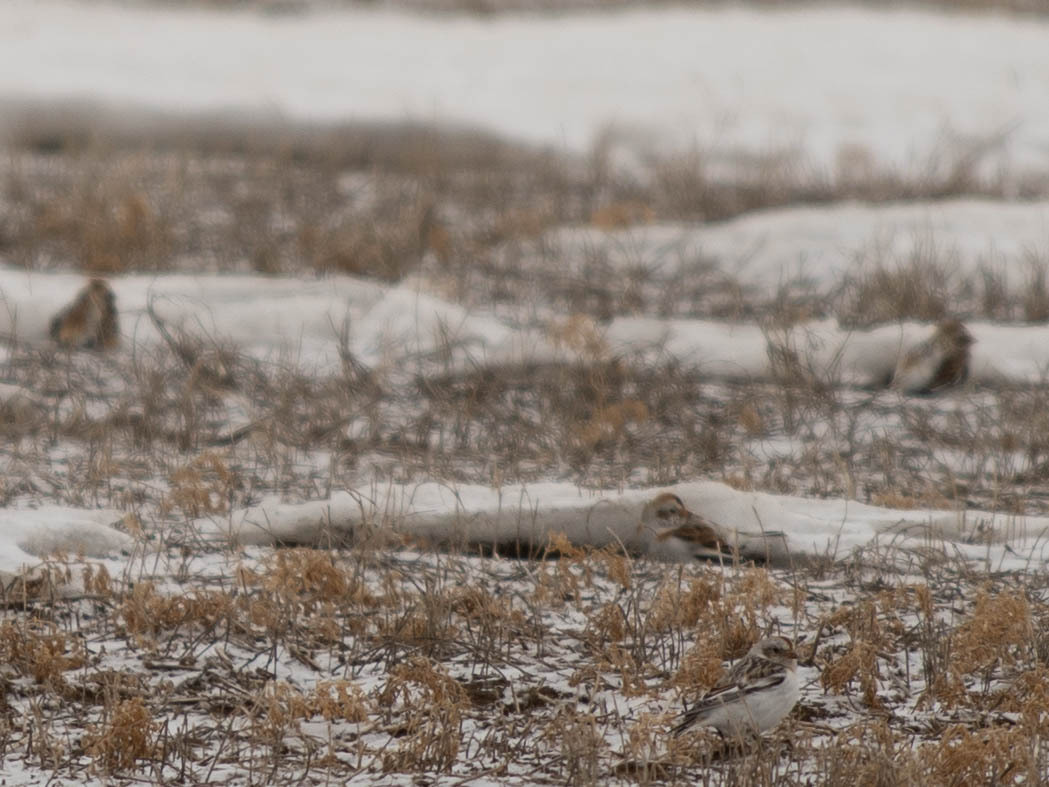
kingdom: Animalia
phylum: Chordata
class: Aves
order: Passeriformes
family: Calcariidae
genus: Plectrophenax
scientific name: Plectrophenax nivalis
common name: Snow bunting
